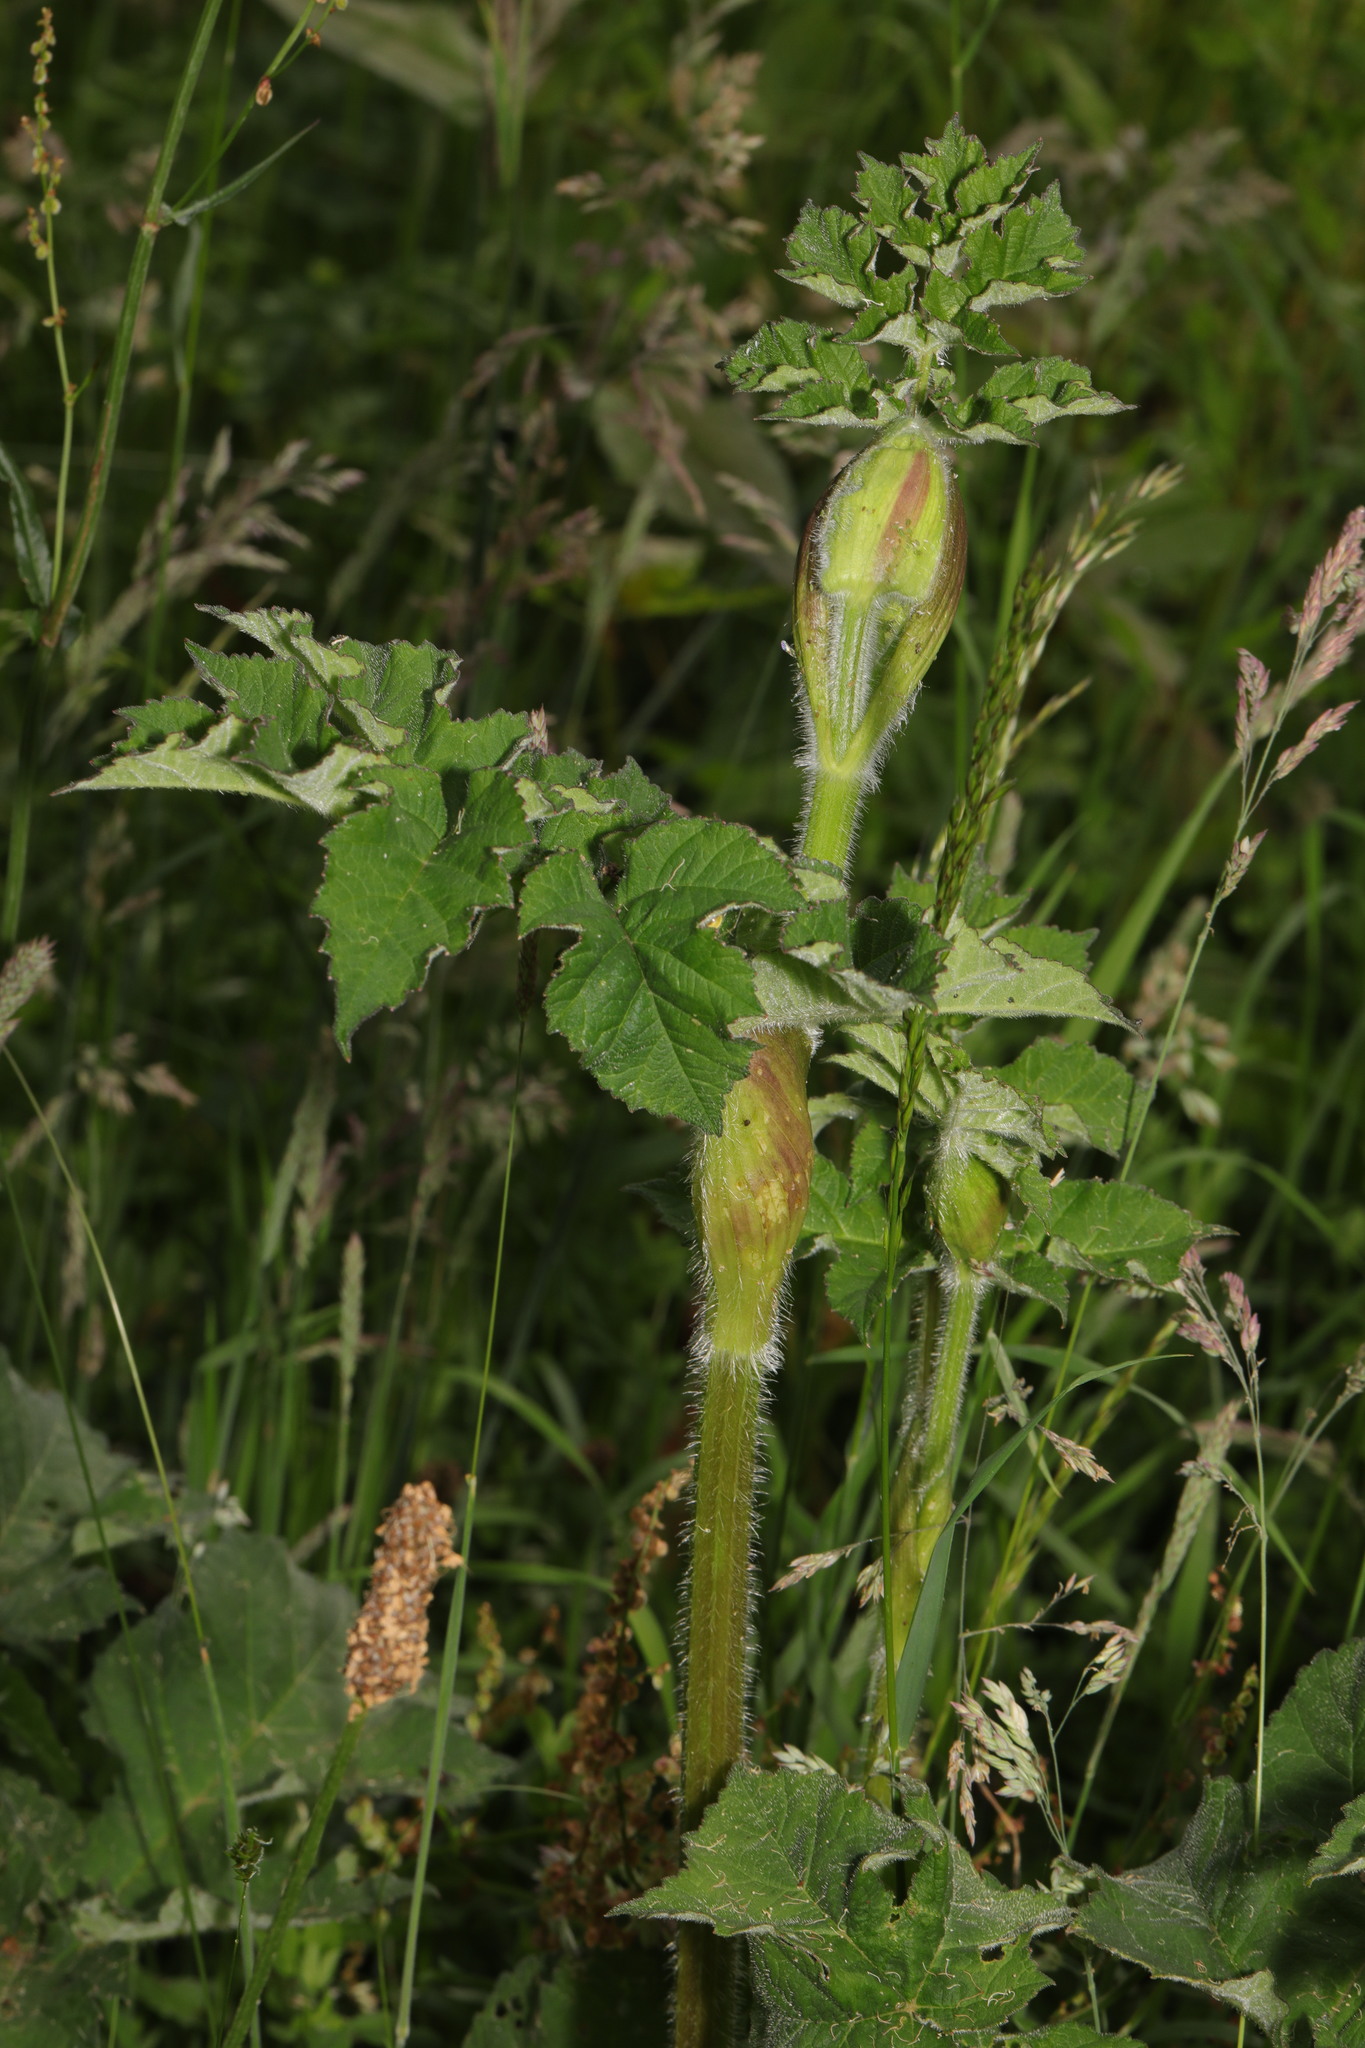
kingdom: Plantae
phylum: Tracheophyta
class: Magnoliopsida
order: Apiales
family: Apiaceae
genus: Heracleum
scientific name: Heracleum sphondylium
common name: Hogweed
